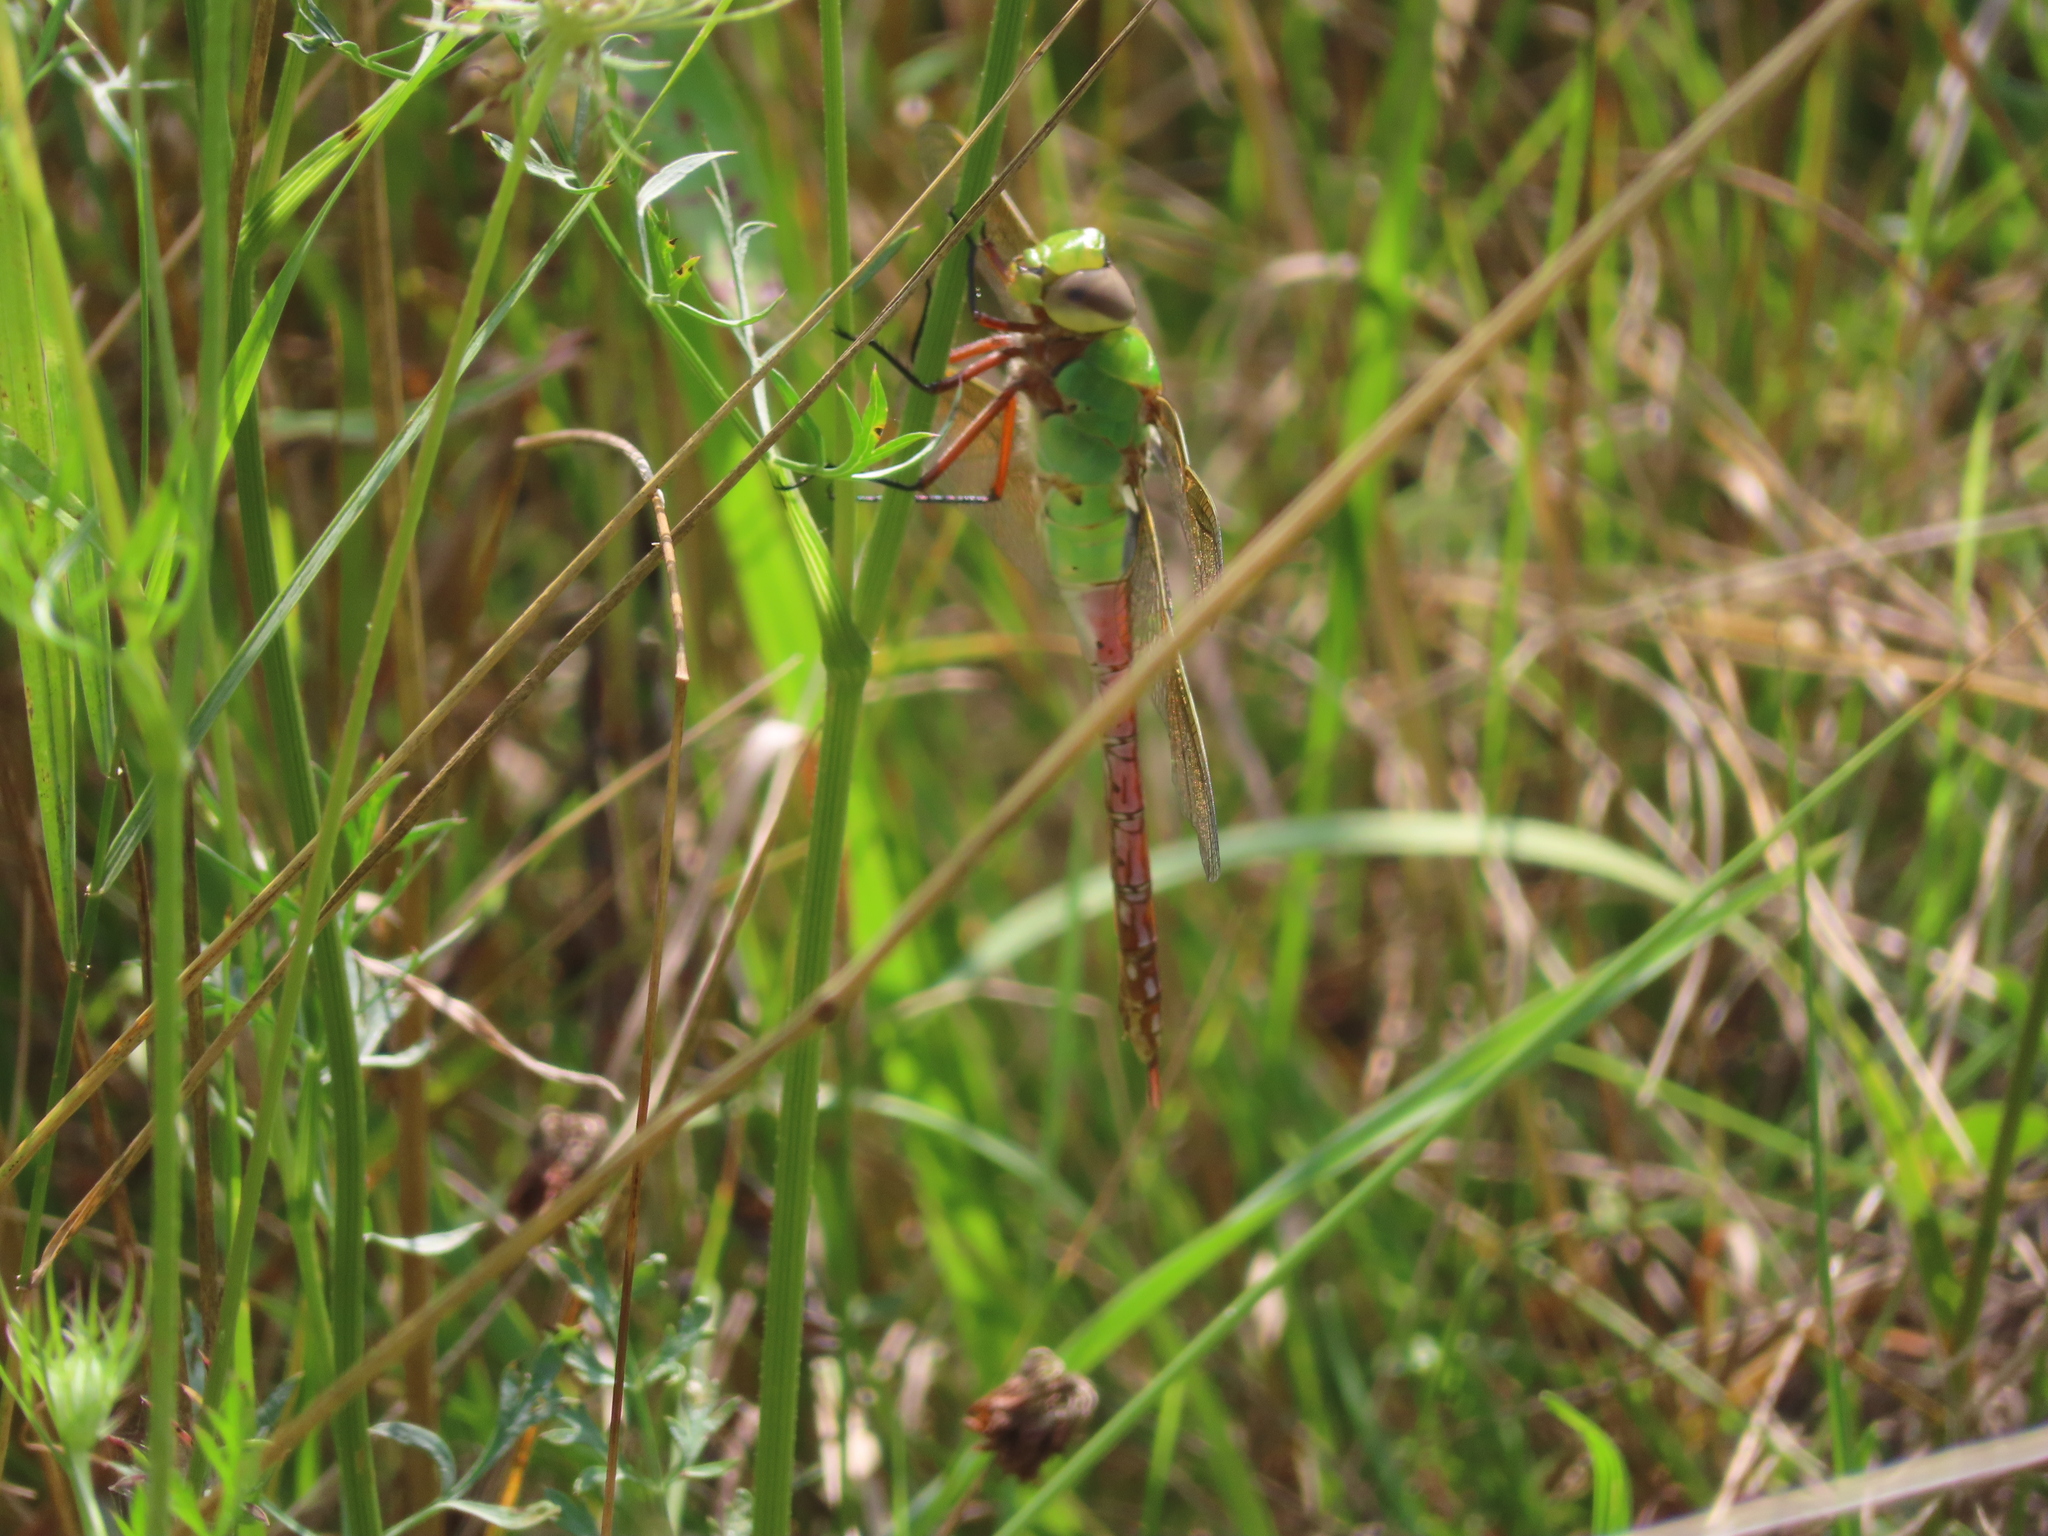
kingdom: Animalia
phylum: Arthropoda
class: Insecta
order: Odonata
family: Aeshnidae
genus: Anax
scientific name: Anax junius
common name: Common green darner
